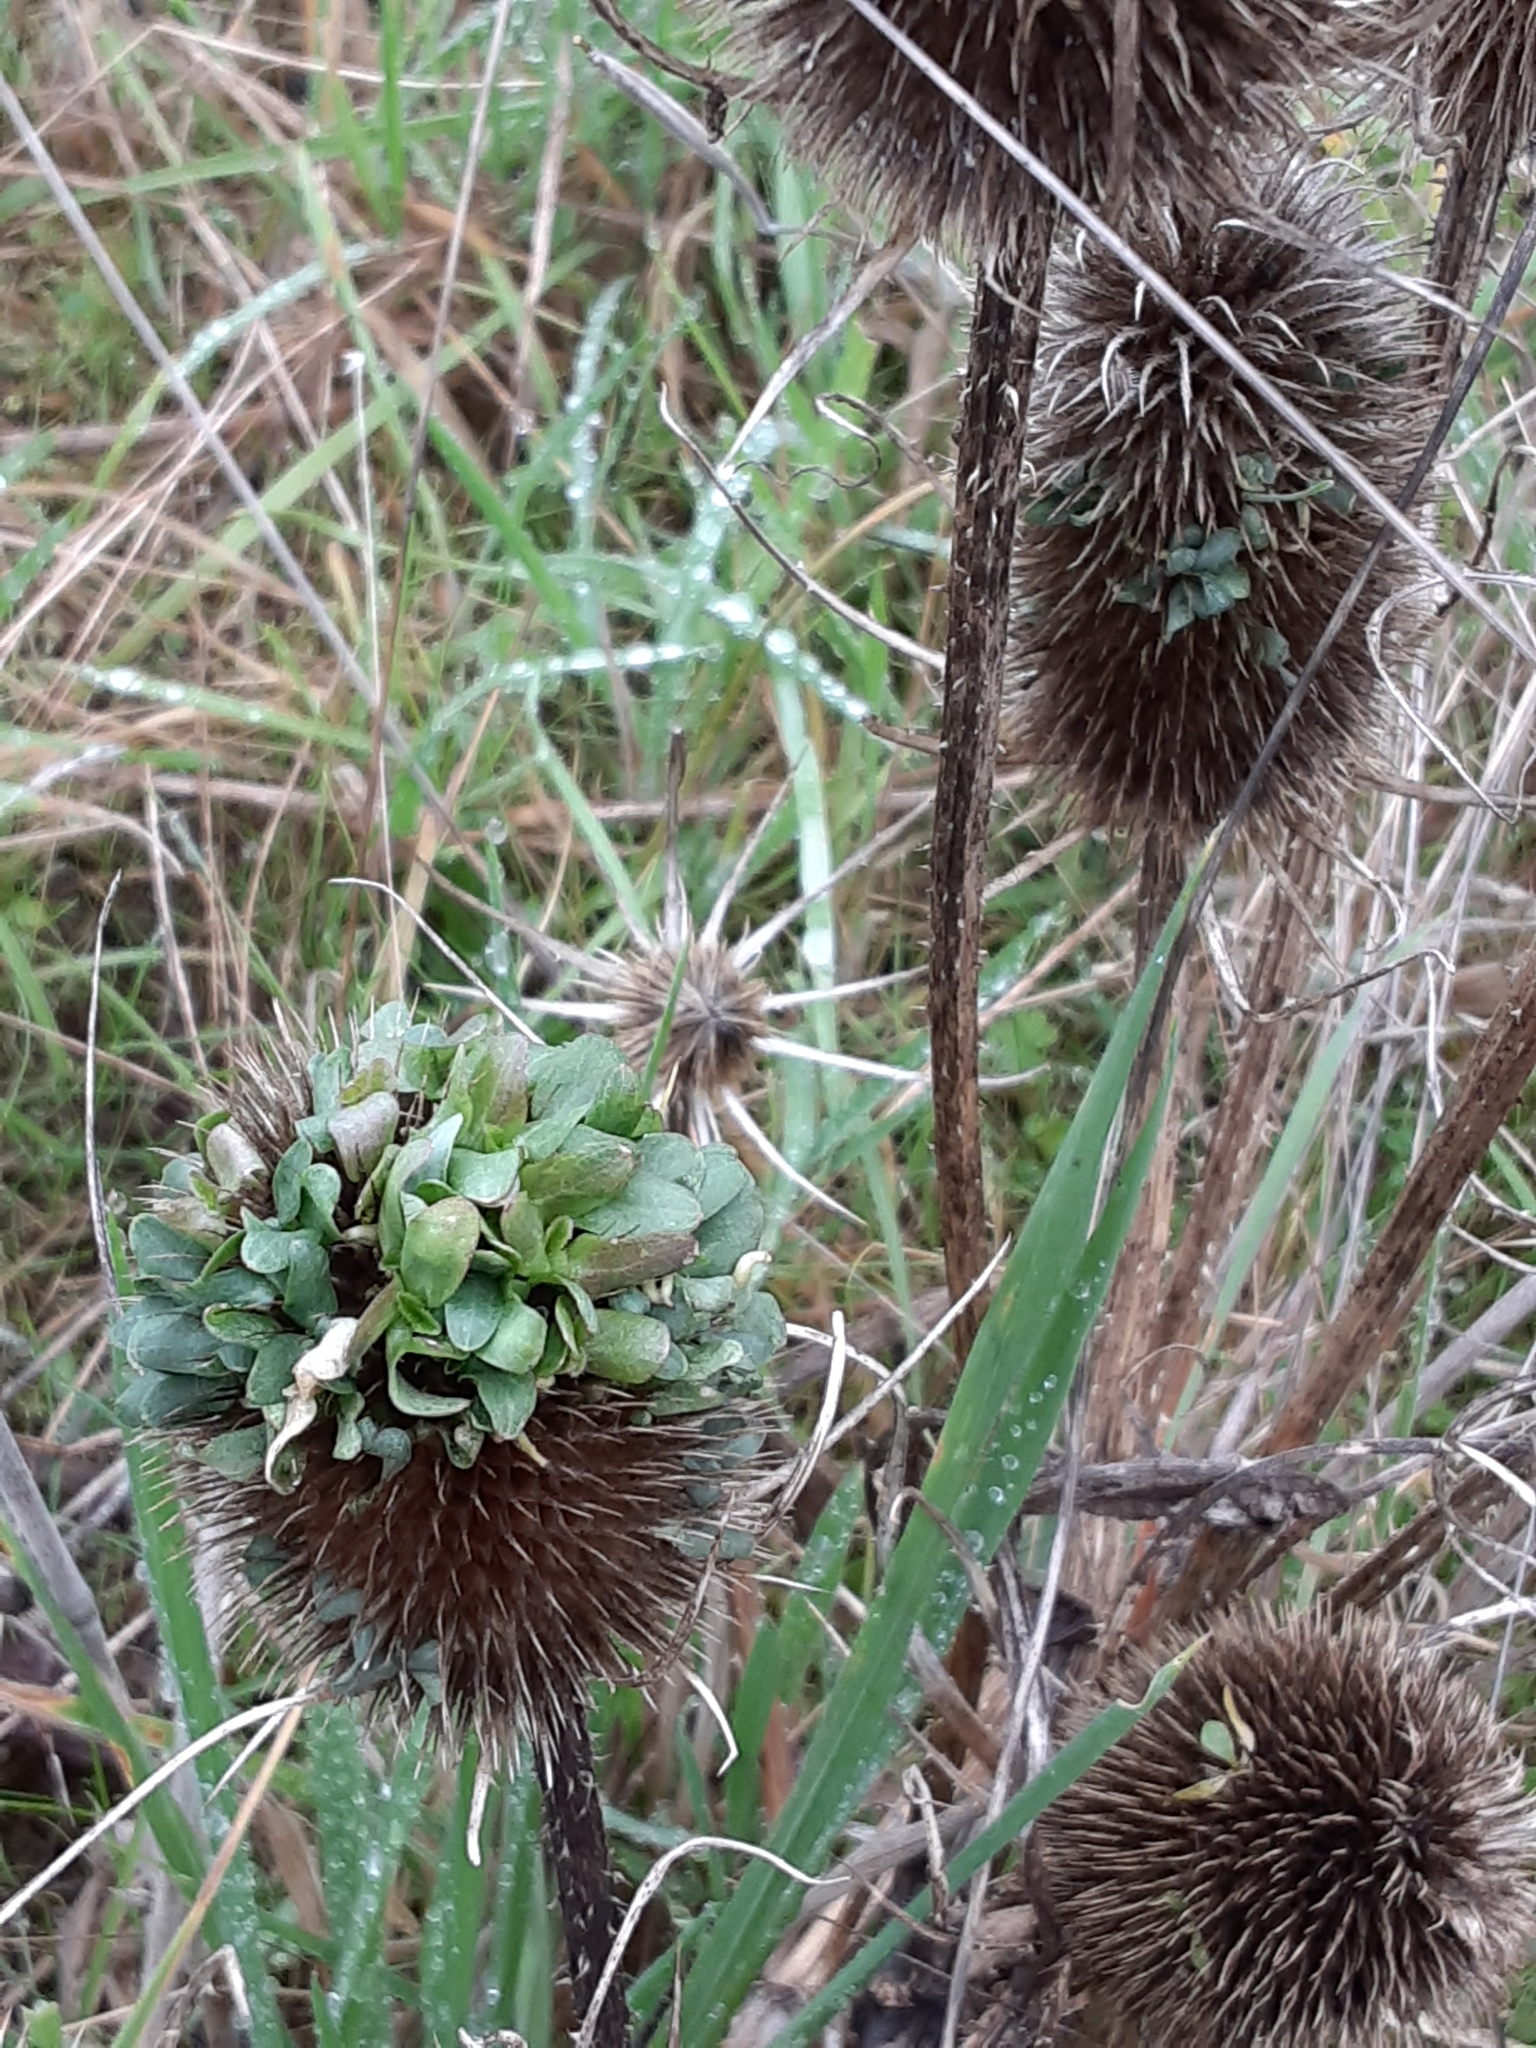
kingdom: Plantae
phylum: Tracheophyta
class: Magnoliopsida
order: Dipsacales
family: Caprifoliaceae
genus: Dipsacus
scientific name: Dipsacus fullonum
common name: Teasel
